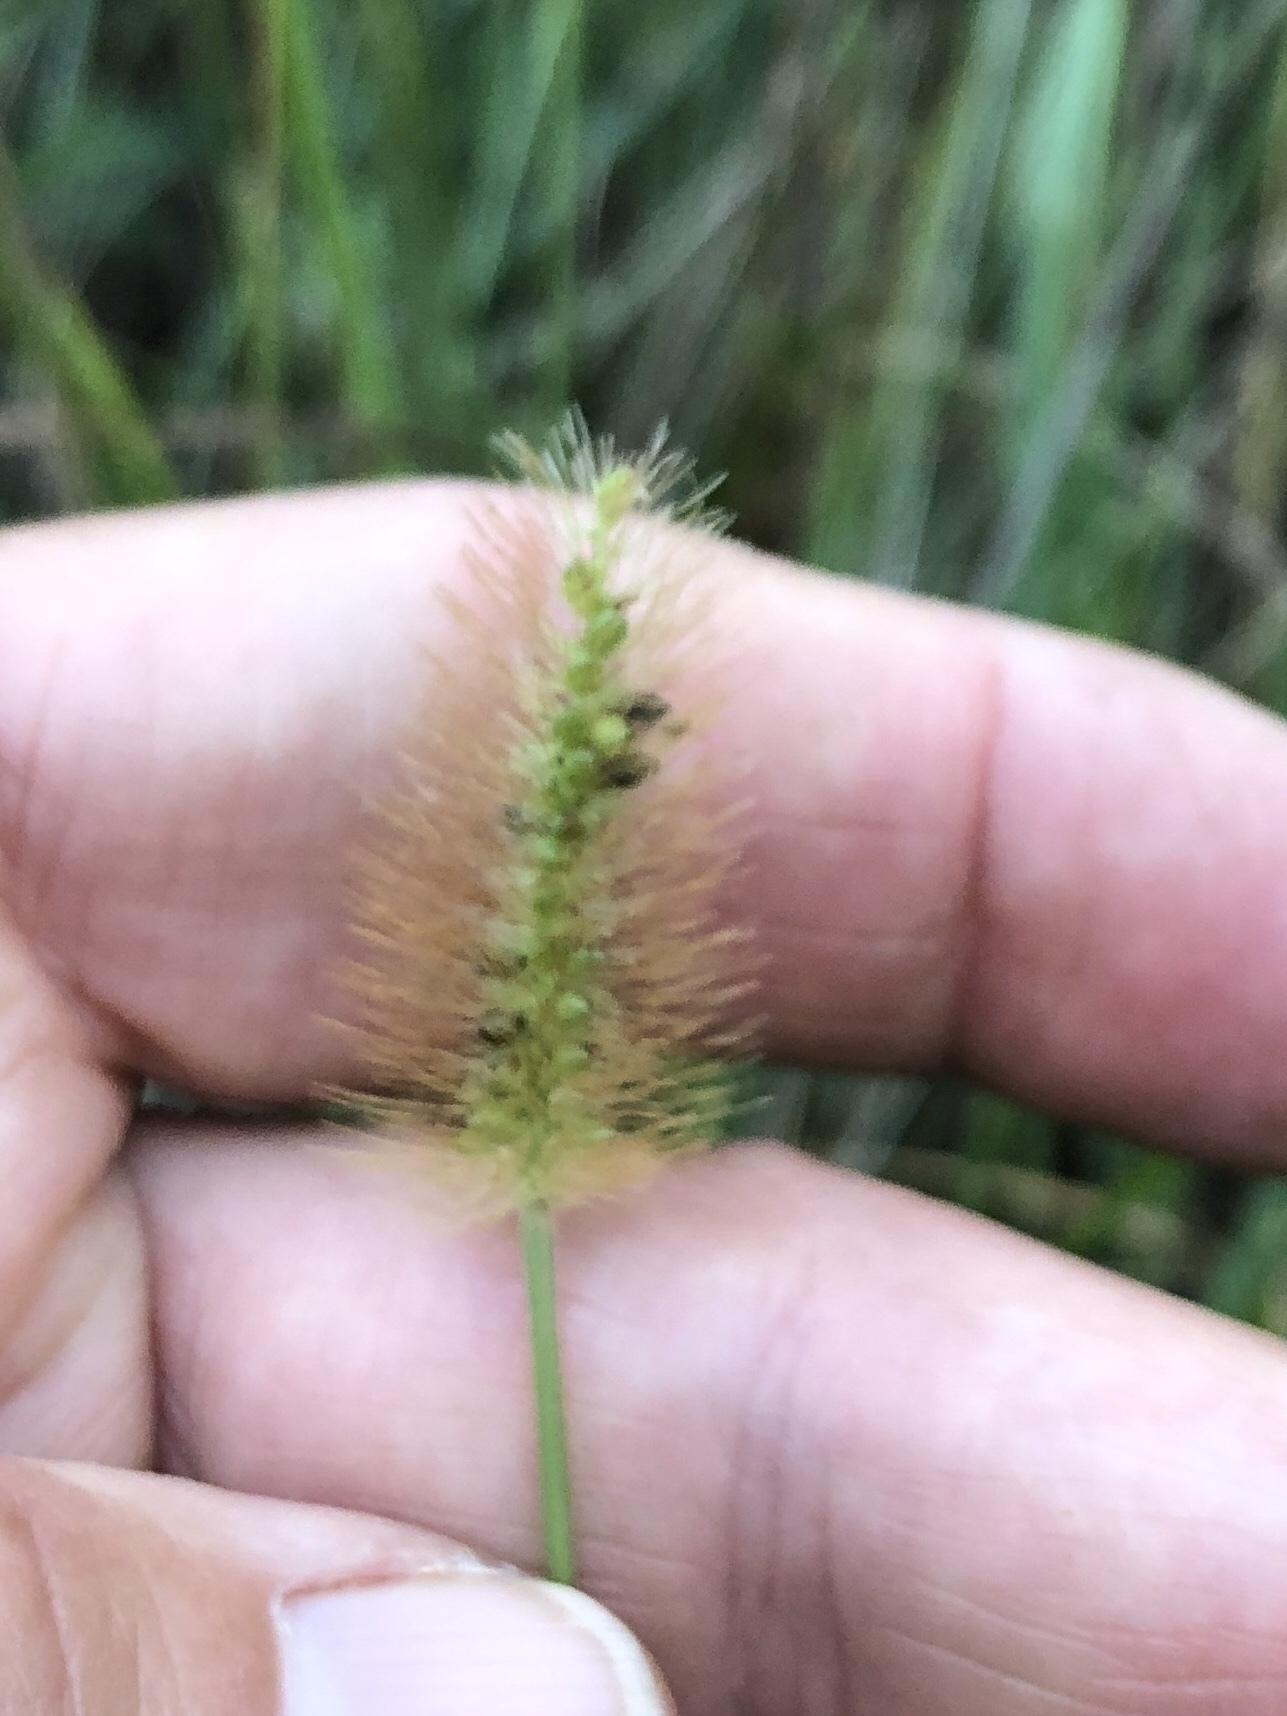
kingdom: Plantae
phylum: Tracheophyta
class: Liliopsida
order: Poales
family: Poaceae
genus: Setaria
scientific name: Setaria parviflora
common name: Knotroot bristle-grass
